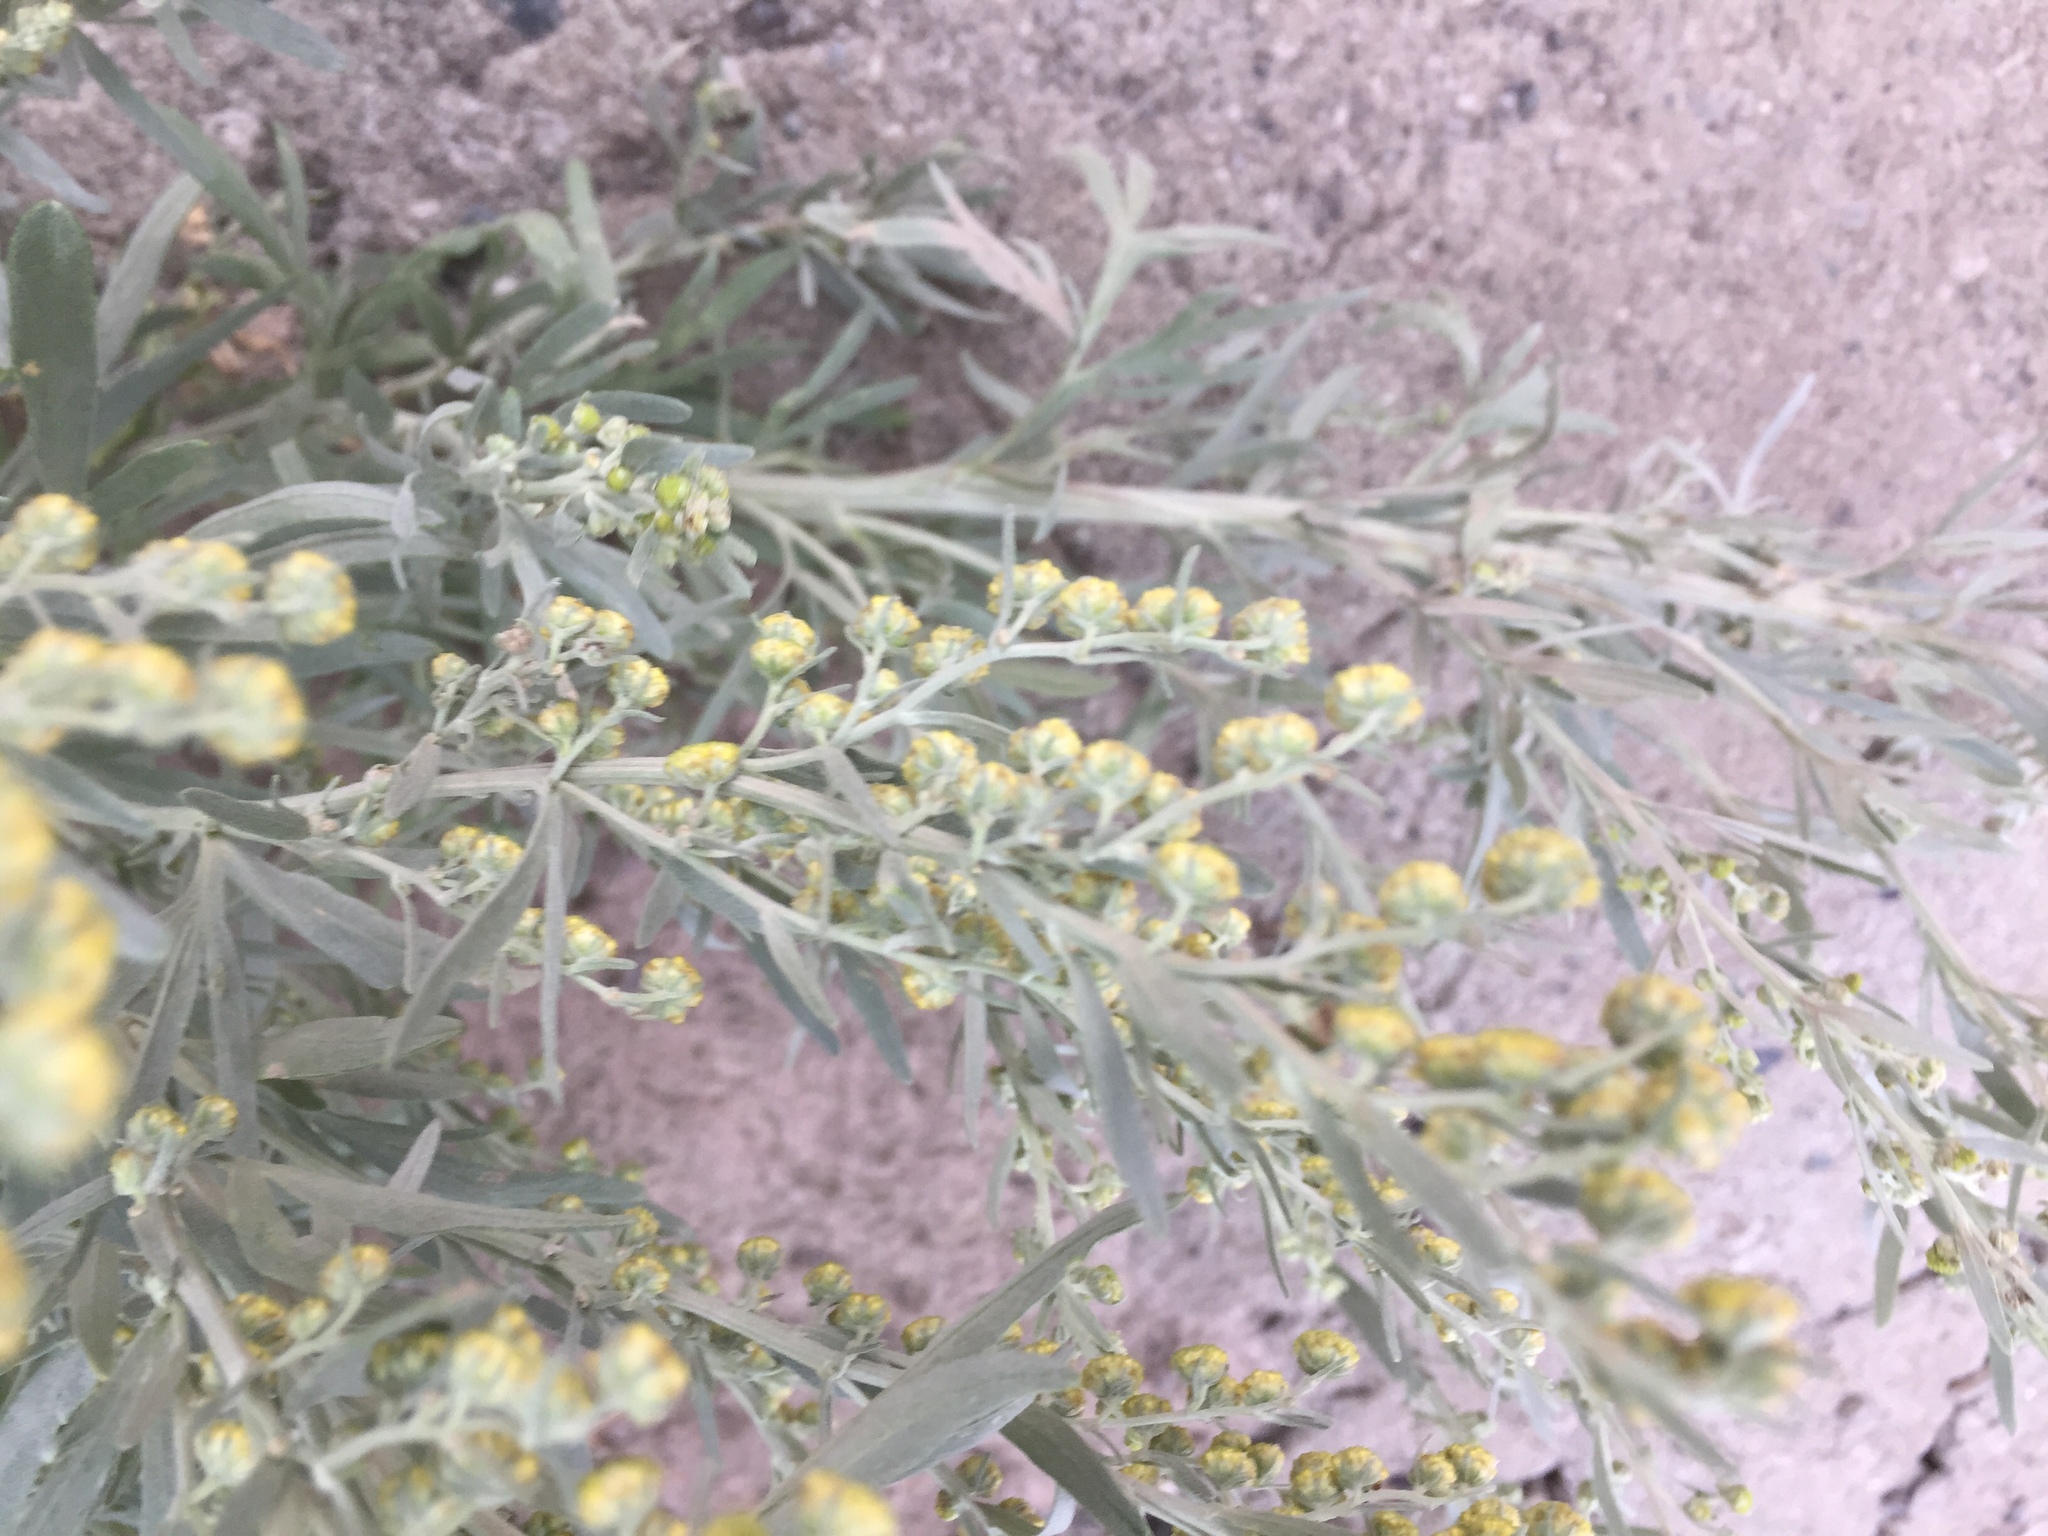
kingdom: Plantae
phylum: Tracheophyta
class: Magnoliopsida
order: Asterales
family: Asteraceae
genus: Artemisia
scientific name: Artemisia absinthium
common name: Wormwood
